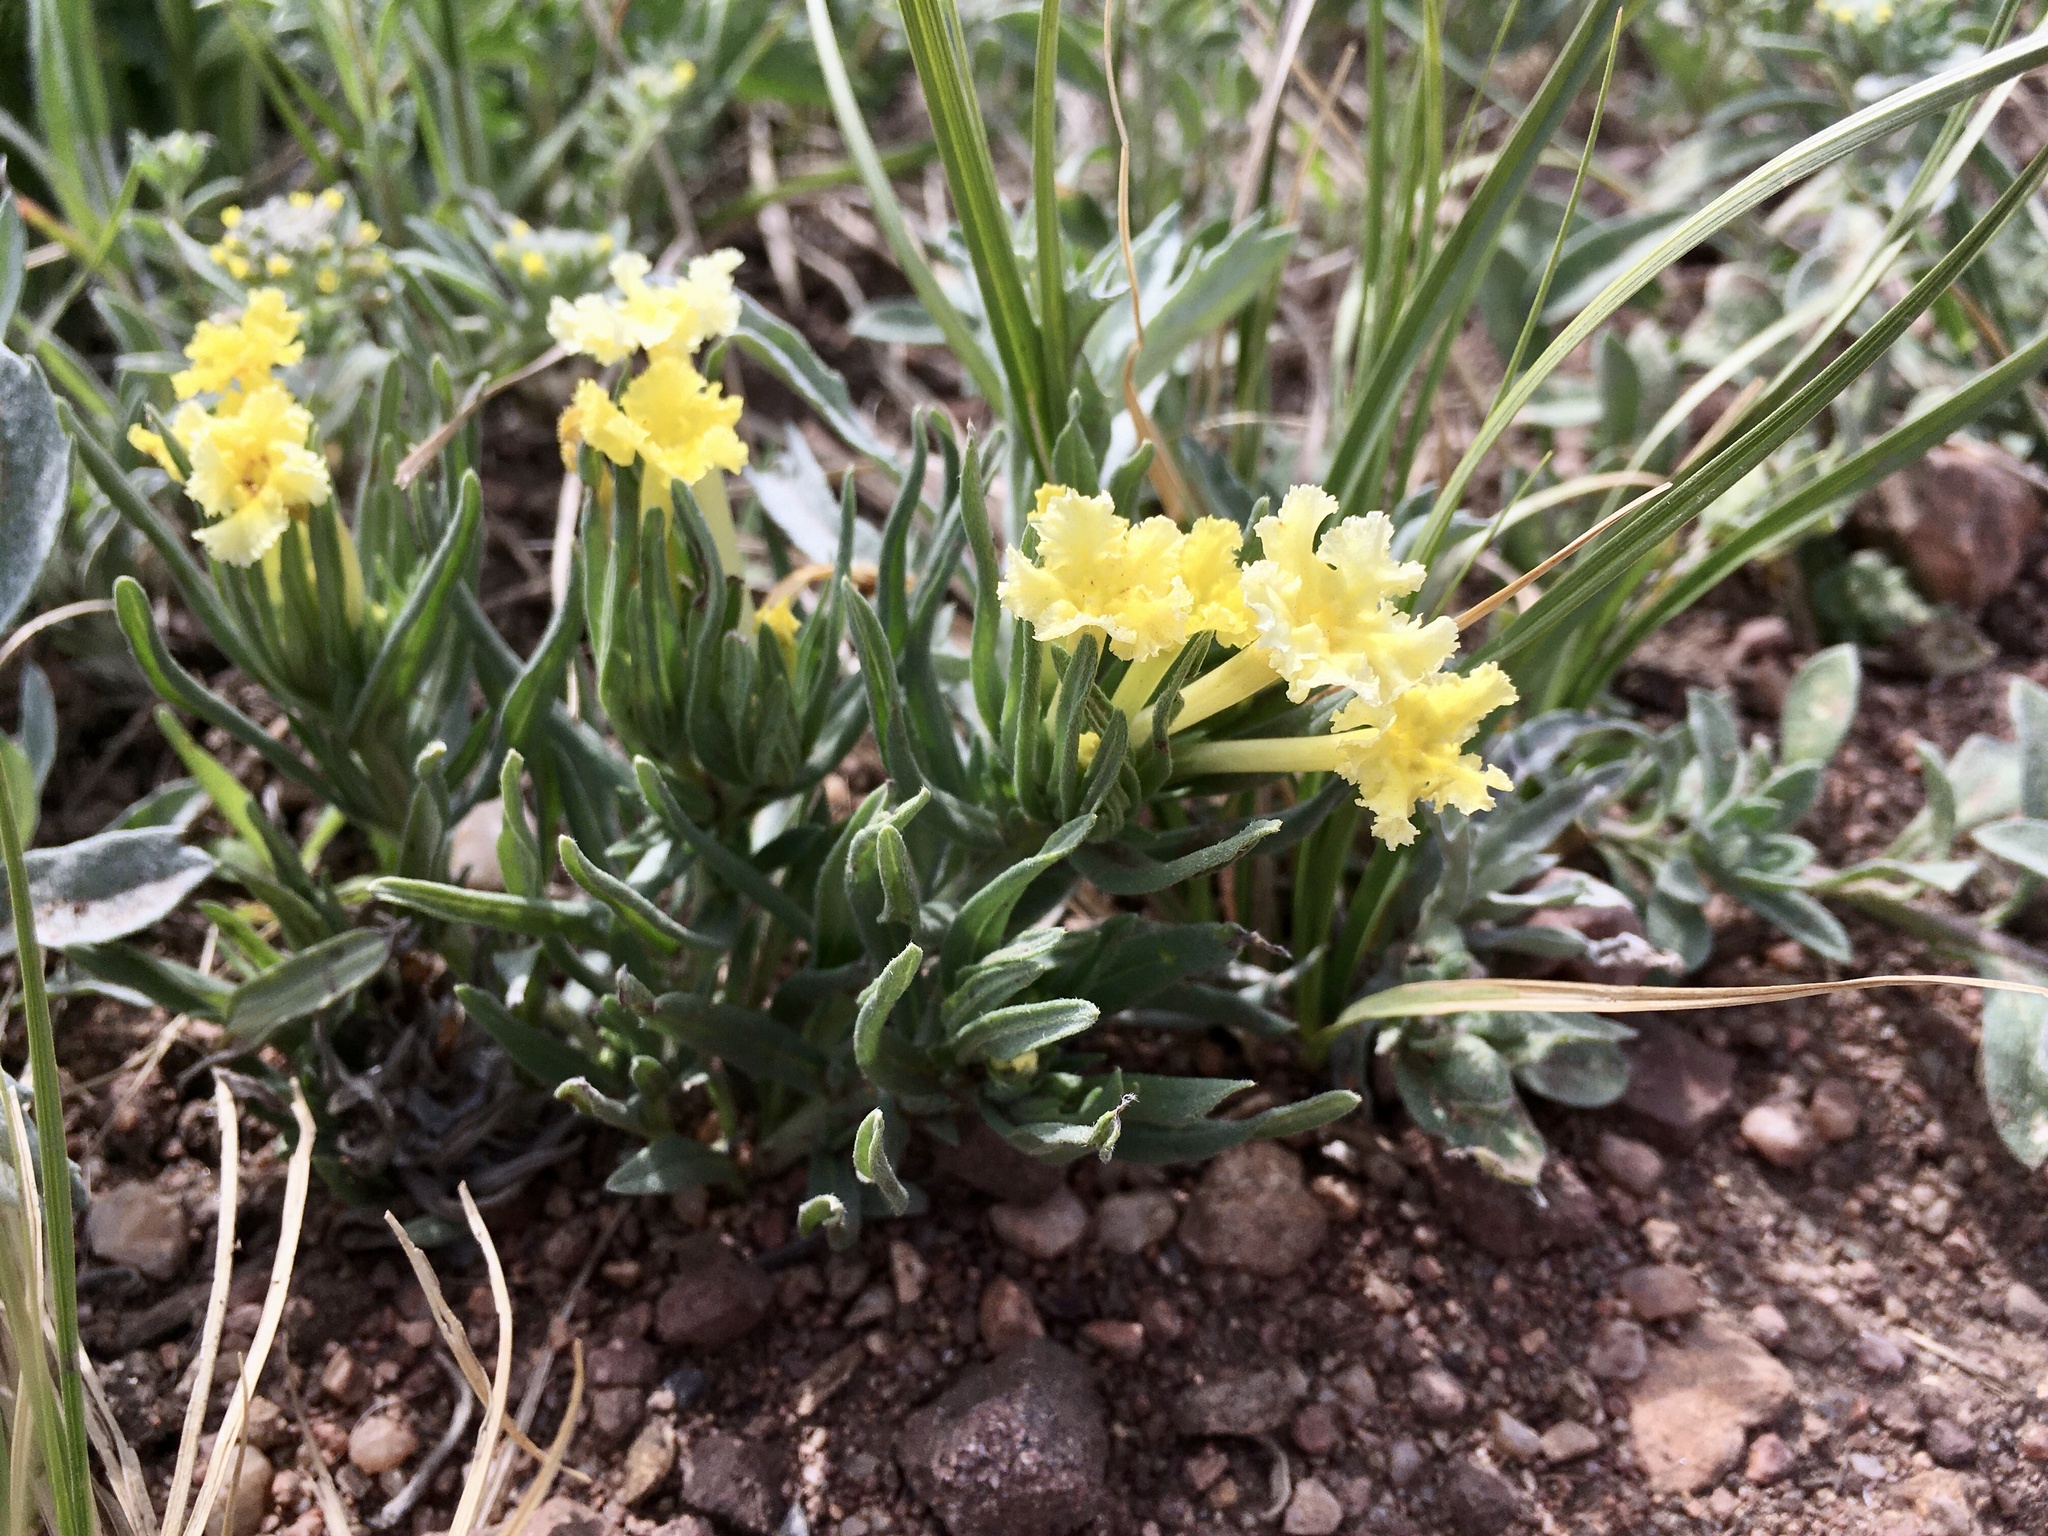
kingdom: Plantae
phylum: Tracheophyta
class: Magnoliopsida
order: Boraginales
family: Boraginaceae
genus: Lithospermum
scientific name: Lithospermum incisum
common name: Fringed gromwell
